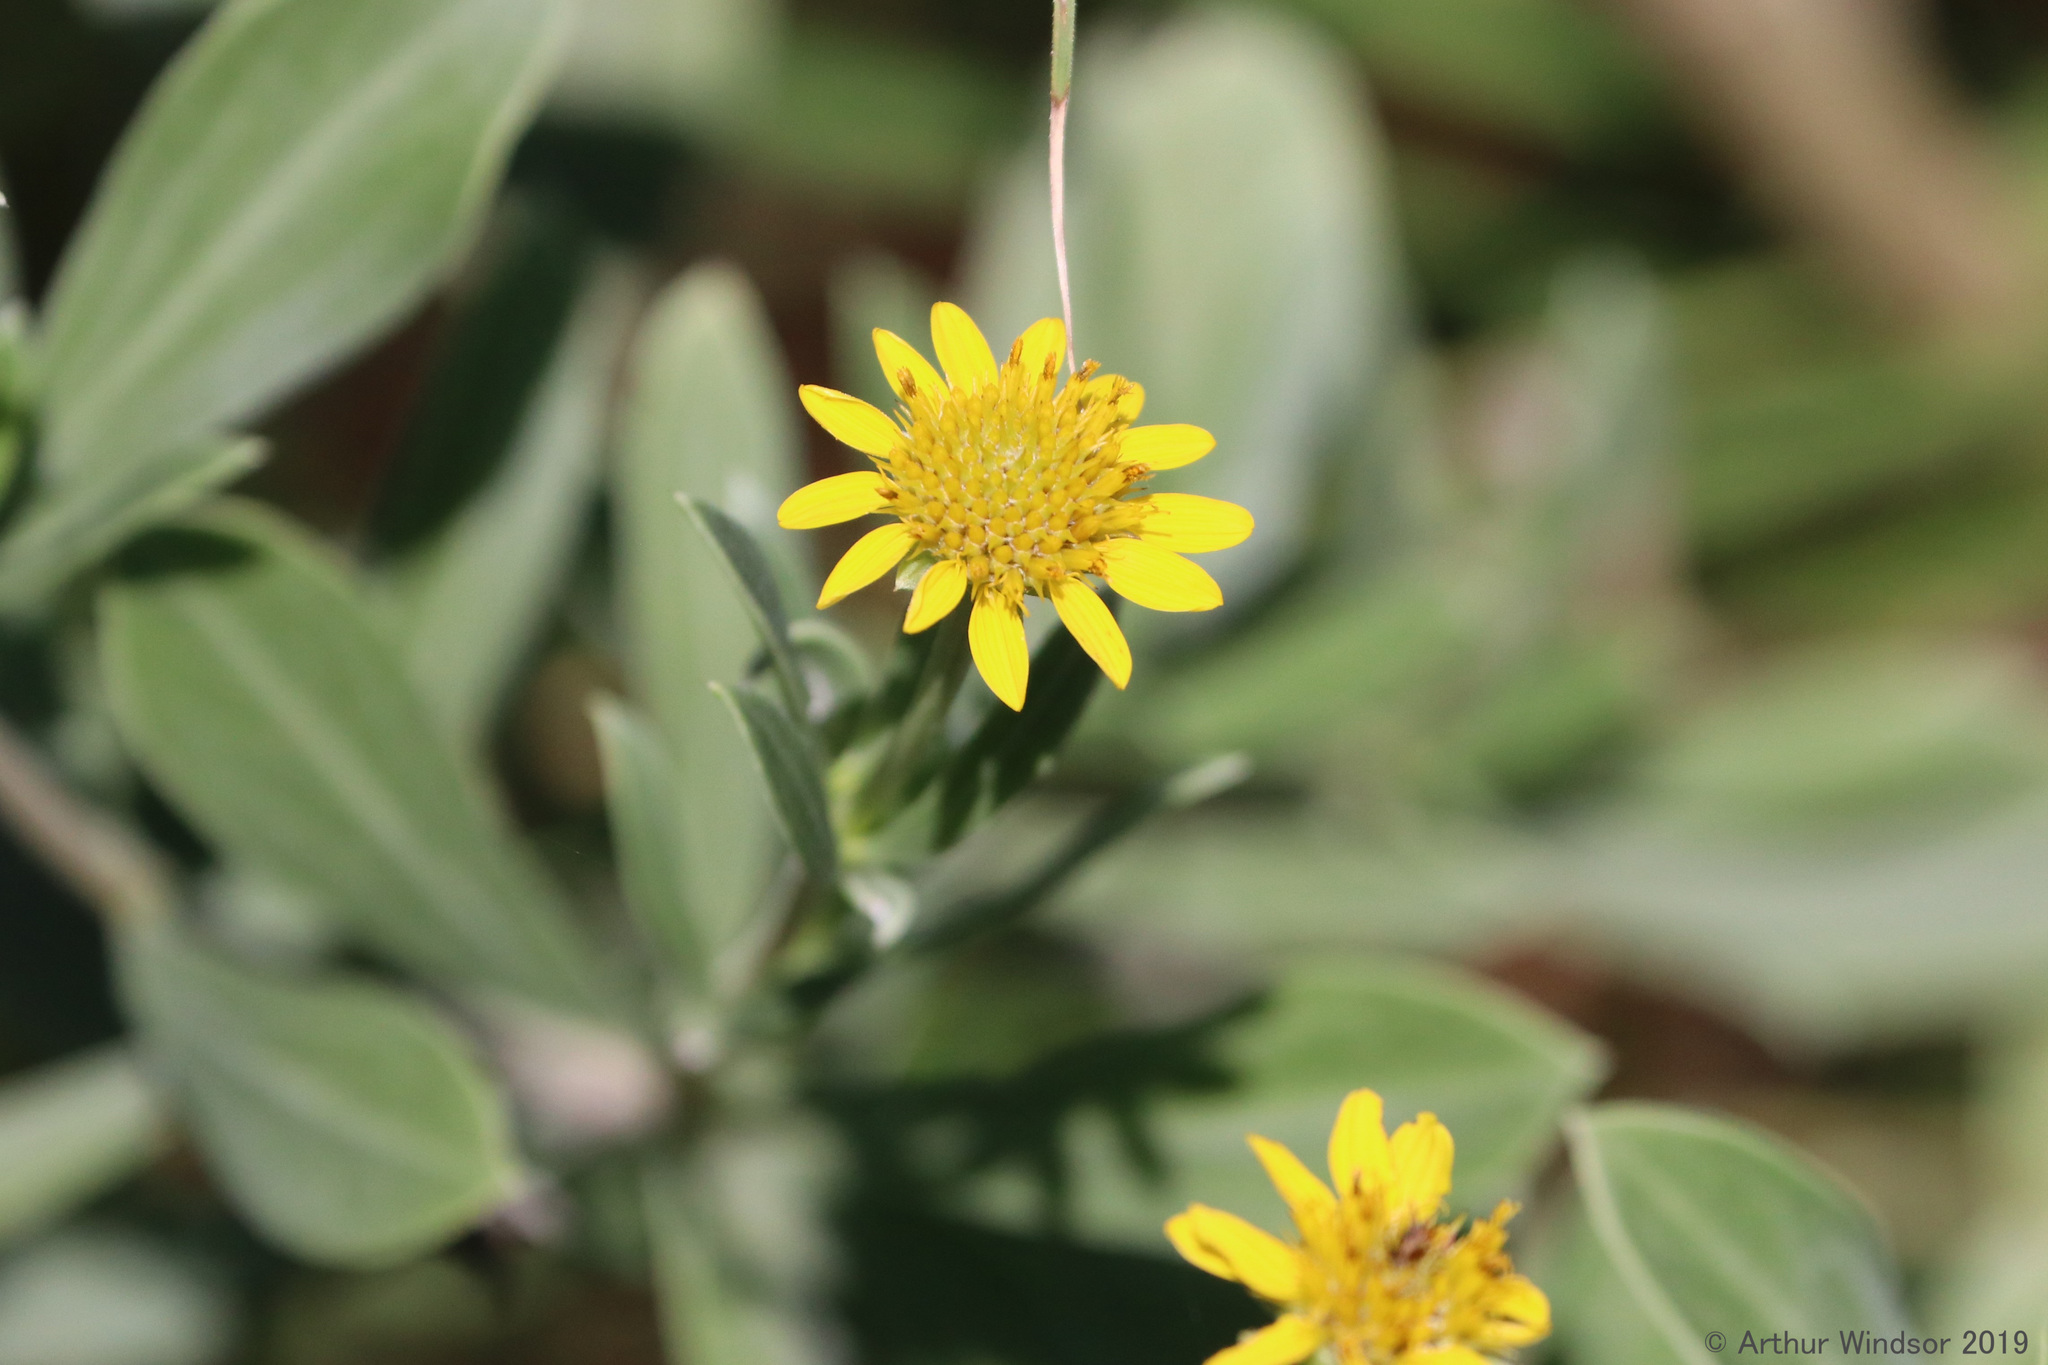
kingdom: Plantae
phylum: Tracheophyta
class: Magnoliopsida
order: Asterales
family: Asteraceae
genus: Borrichia
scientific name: Borrichia frutescens
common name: Sea oxeye
